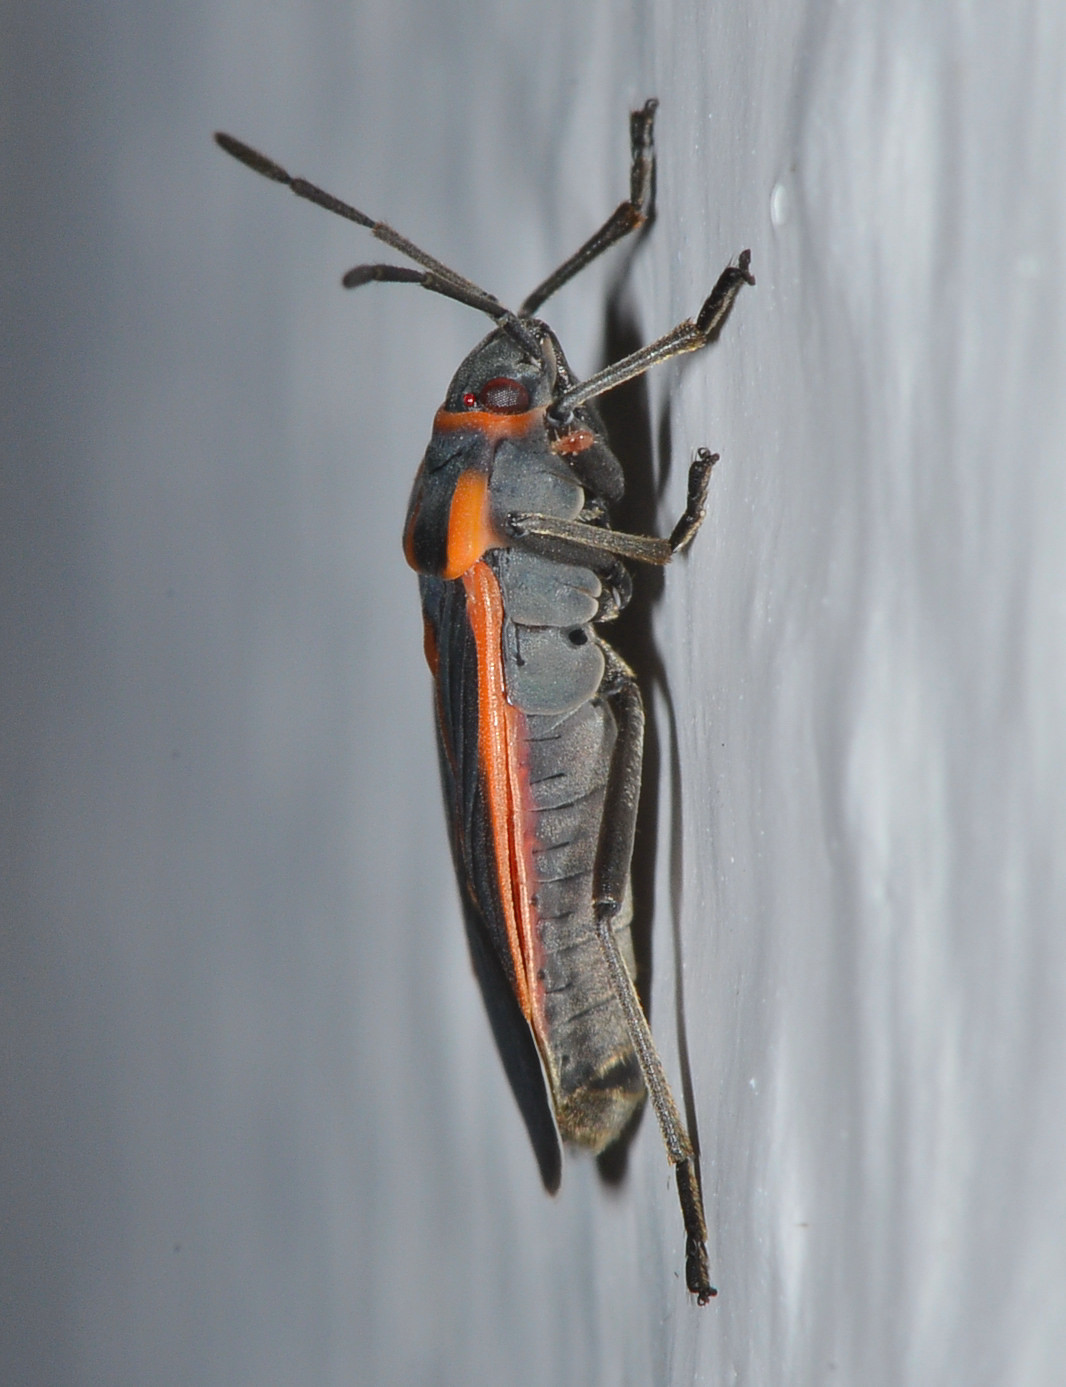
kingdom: Animalia
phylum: Arthropoda
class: Insecta
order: Hemiptera
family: Lygaeidae
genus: Melacoryphus
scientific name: Melacoryphus circumlitus
